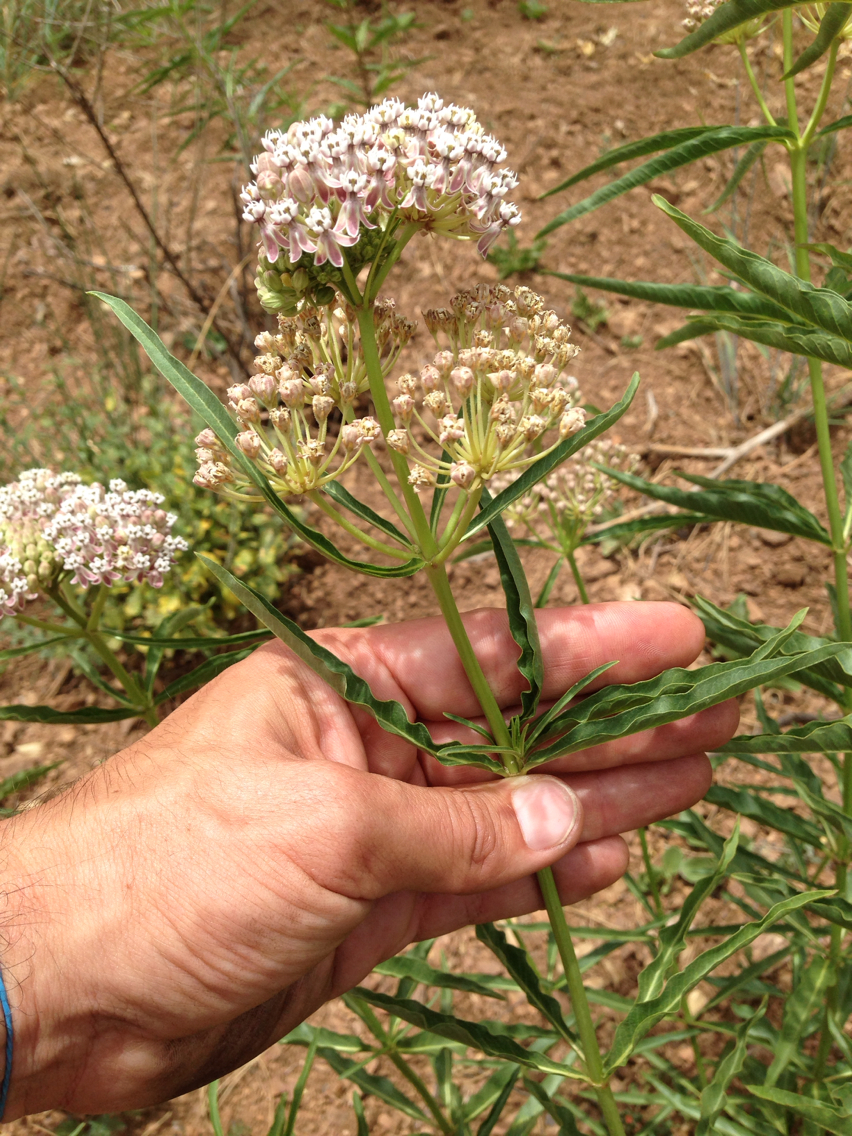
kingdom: Plantae
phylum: Tracheophyta
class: Magnoliopsida
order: Gentianales
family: Apocynaceae
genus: Asclepias
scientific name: Asclepias fascicularis
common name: Mexican milkweed
